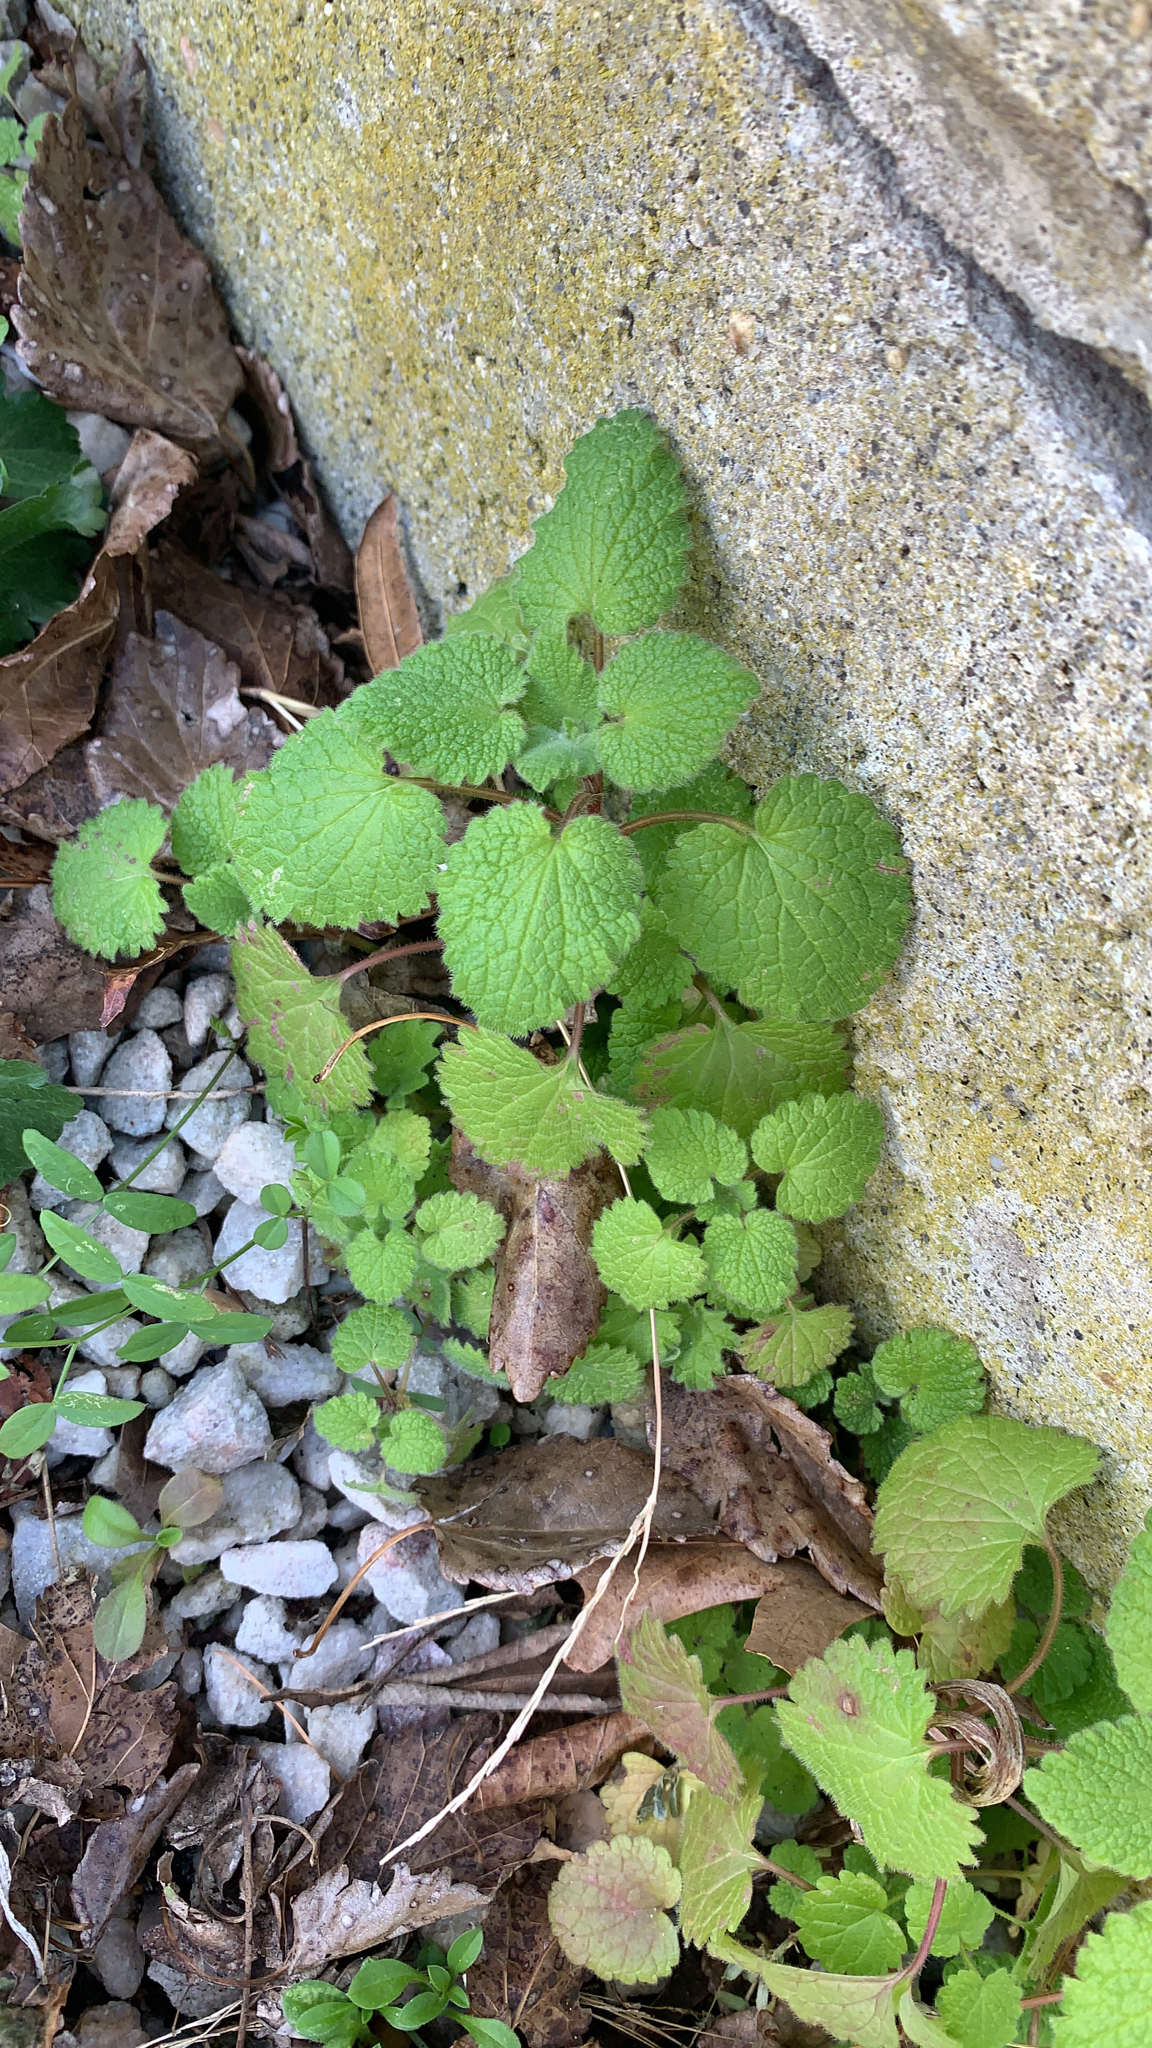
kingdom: Plantae
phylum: Tracheophyta
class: Magnoliopsida
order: Lamiales
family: Lamiaceae
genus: Lamium
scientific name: Lamium purpureum
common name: Red dead-nettle
